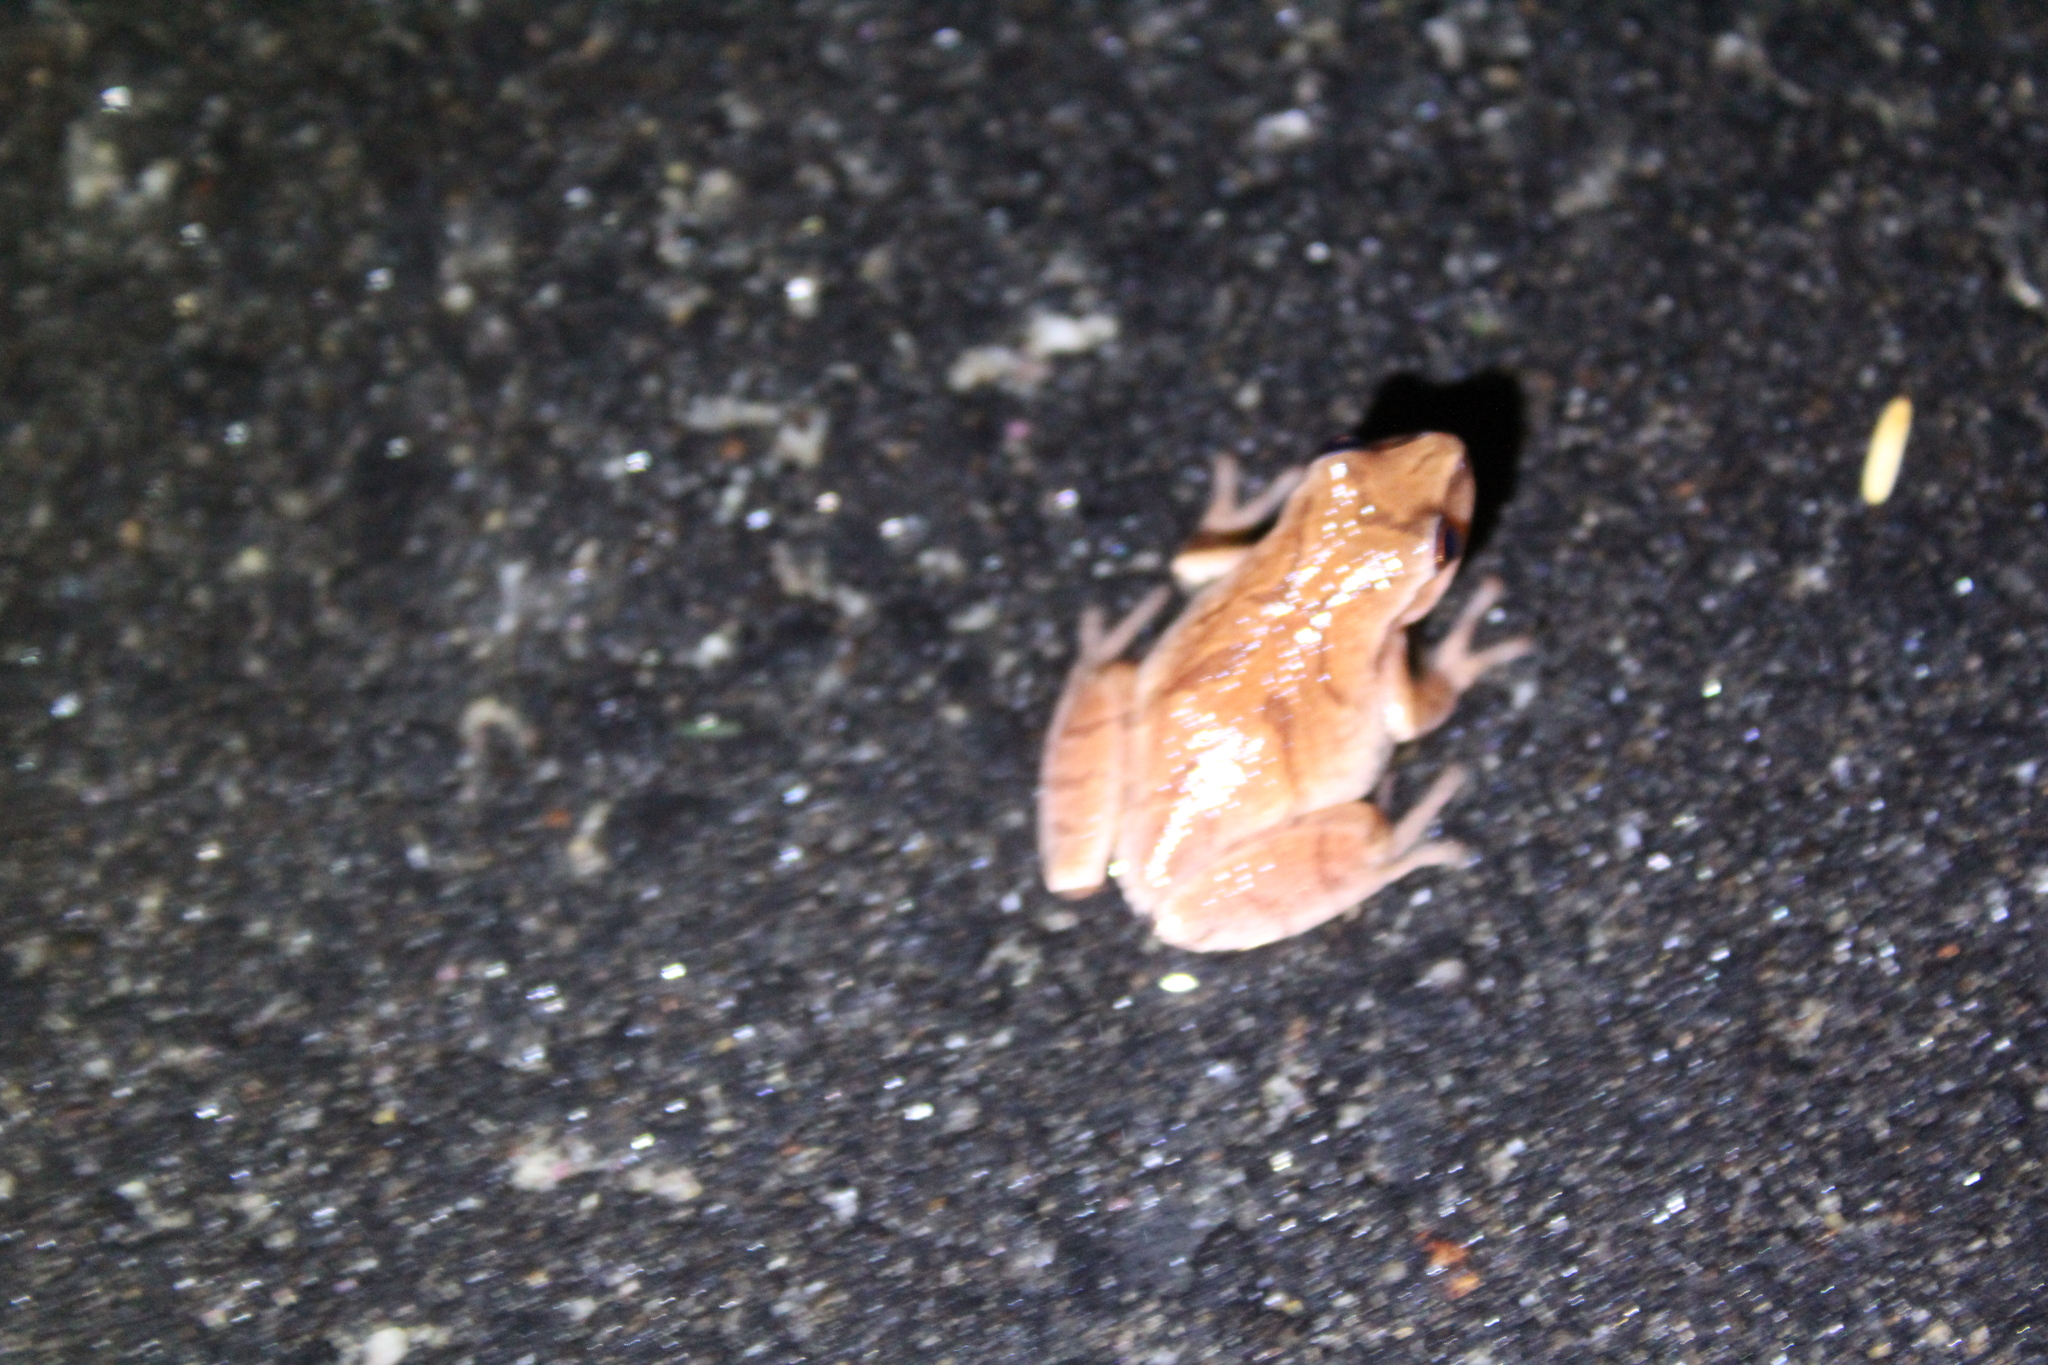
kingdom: Animalia
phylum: Chordata
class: Amphibia
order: Anura
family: Hylidae
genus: Pseudacris
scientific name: Pseudacris crucifer
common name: Spring peeper
